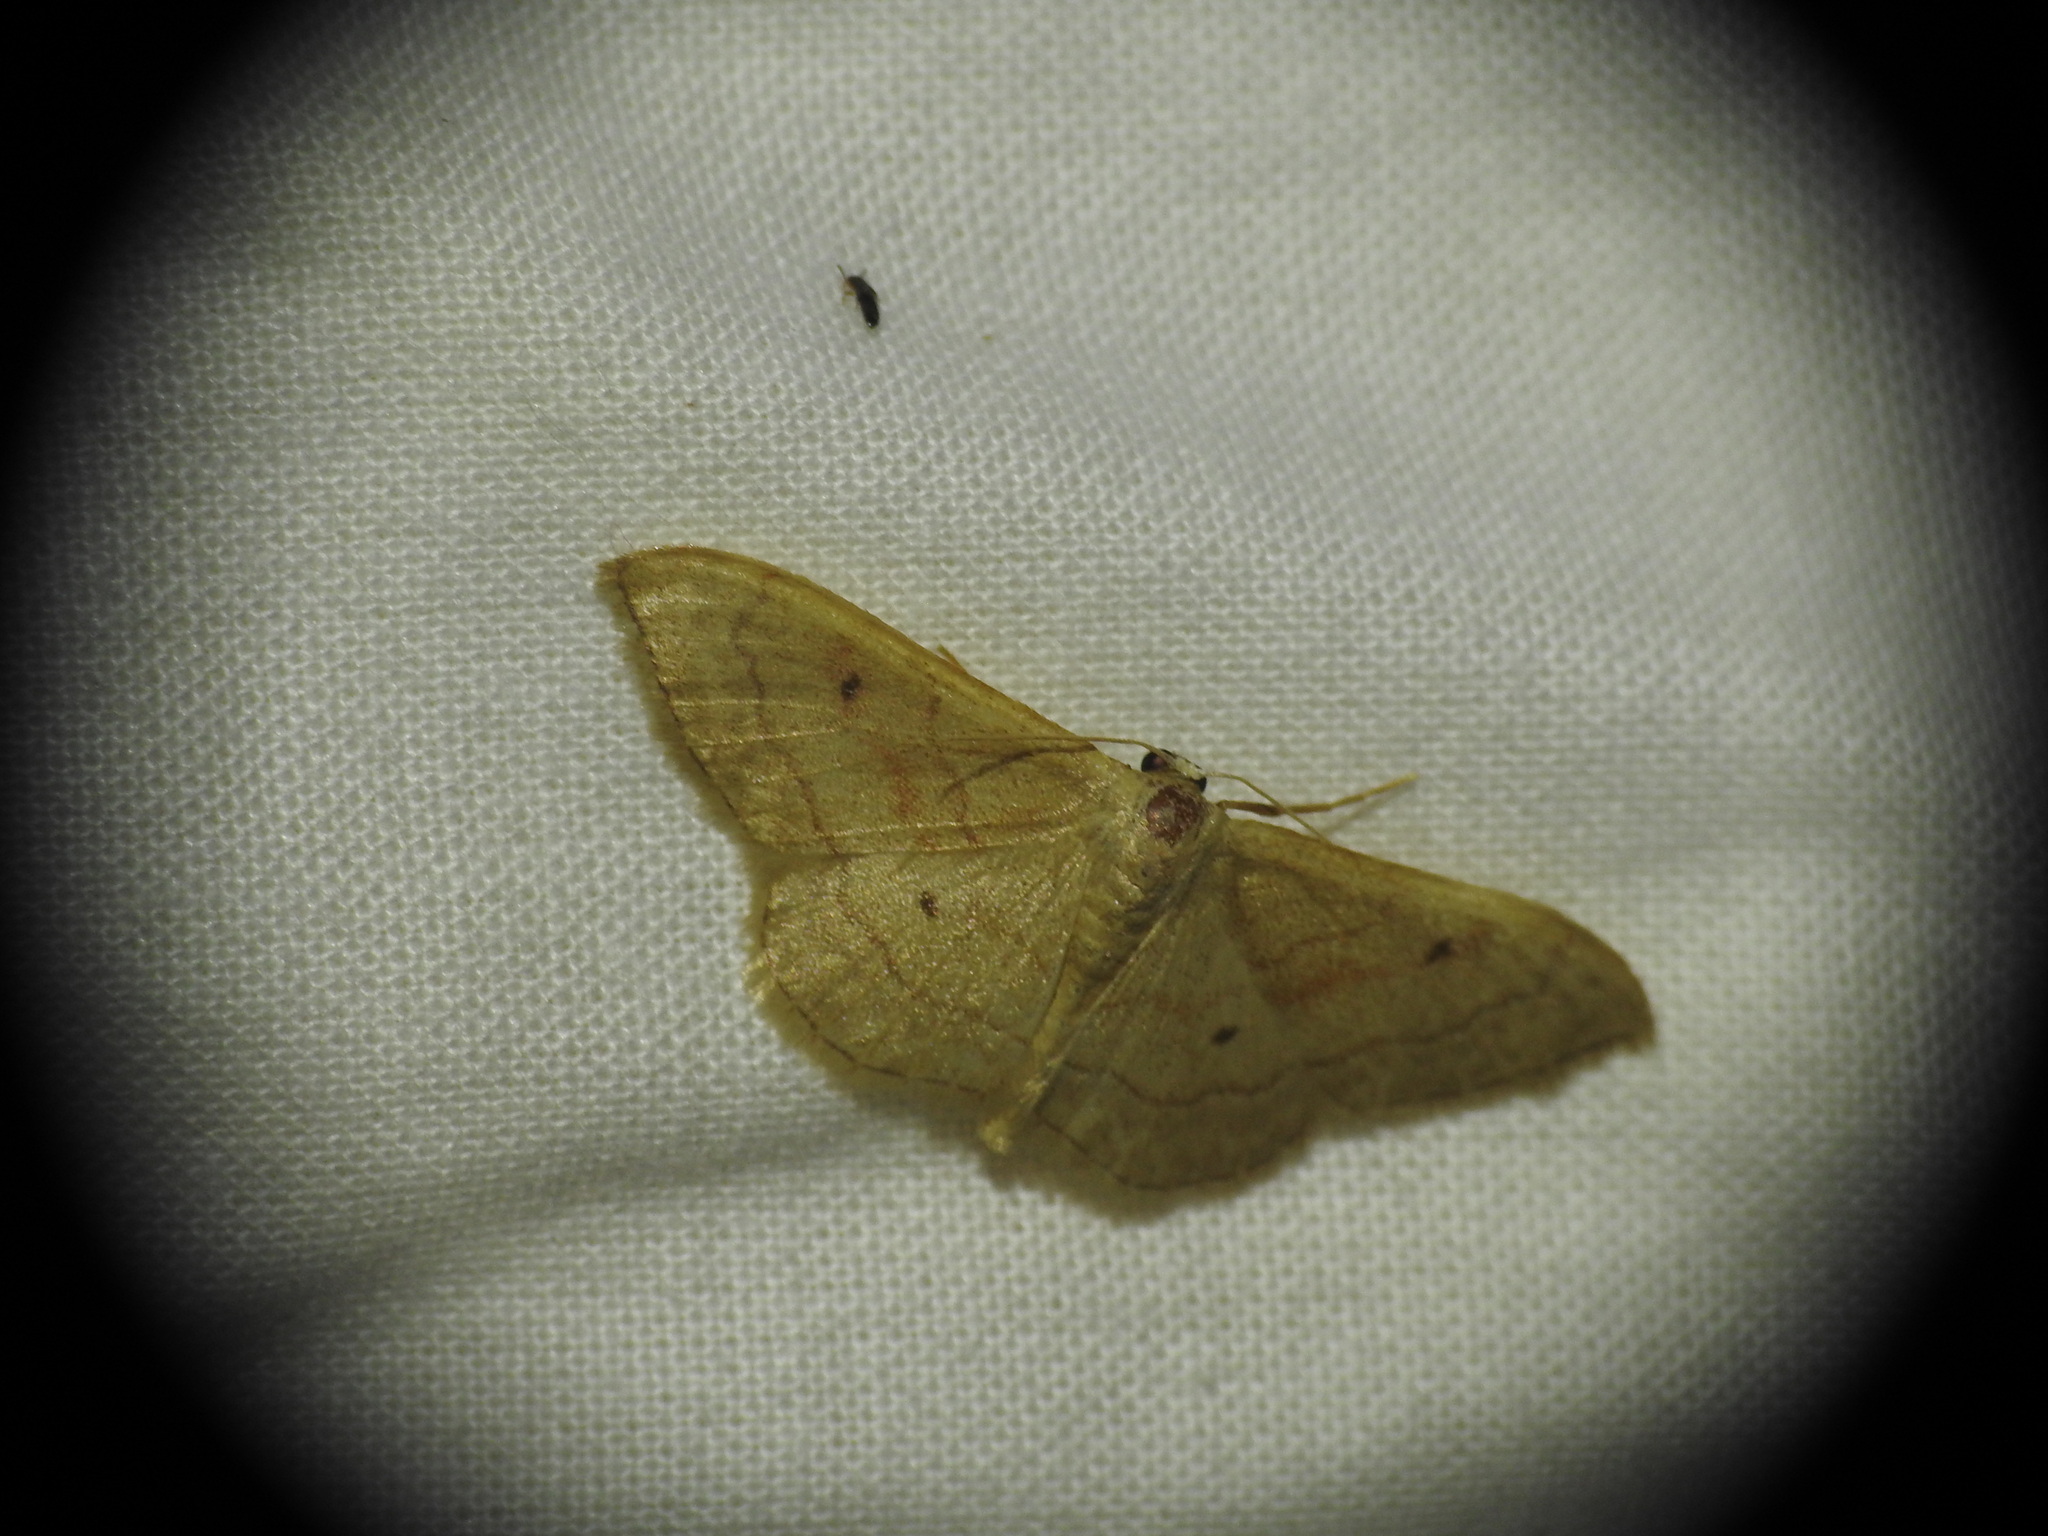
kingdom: Animalia
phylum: Arthropoda
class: Insecta
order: Lepidoptera
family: Geometridae
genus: Idaea
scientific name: Idaea bilinearia
